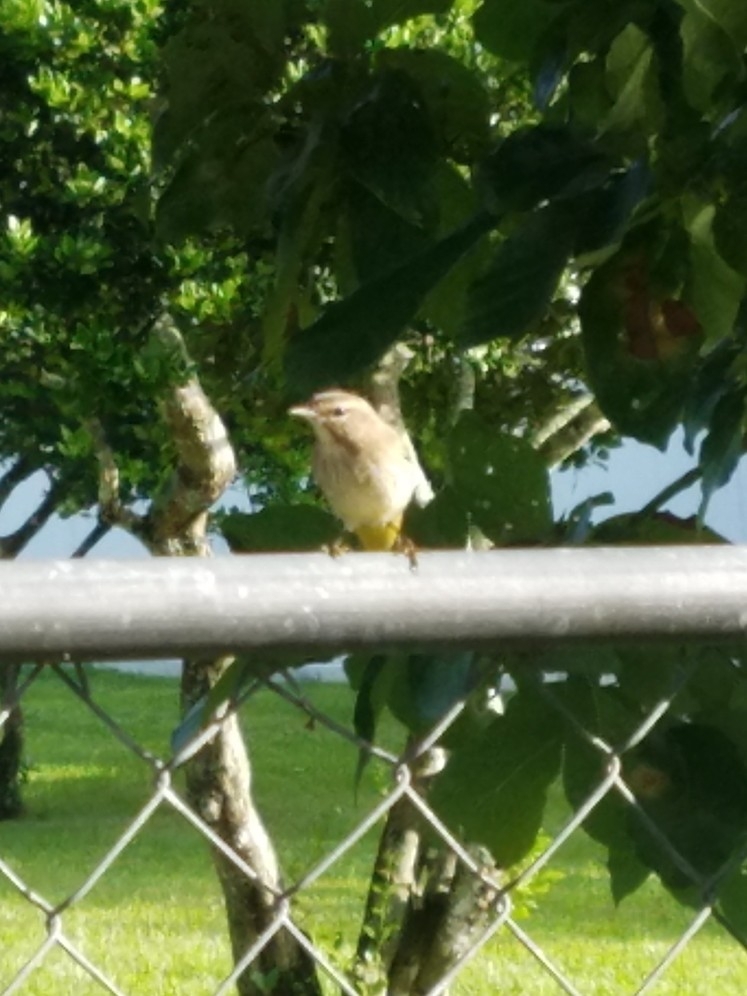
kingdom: Animalia
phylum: Chordata
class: Aves
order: Passeriformes
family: Parulidae
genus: Setophaga
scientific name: Setophaga palmarum
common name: Palm warbler
